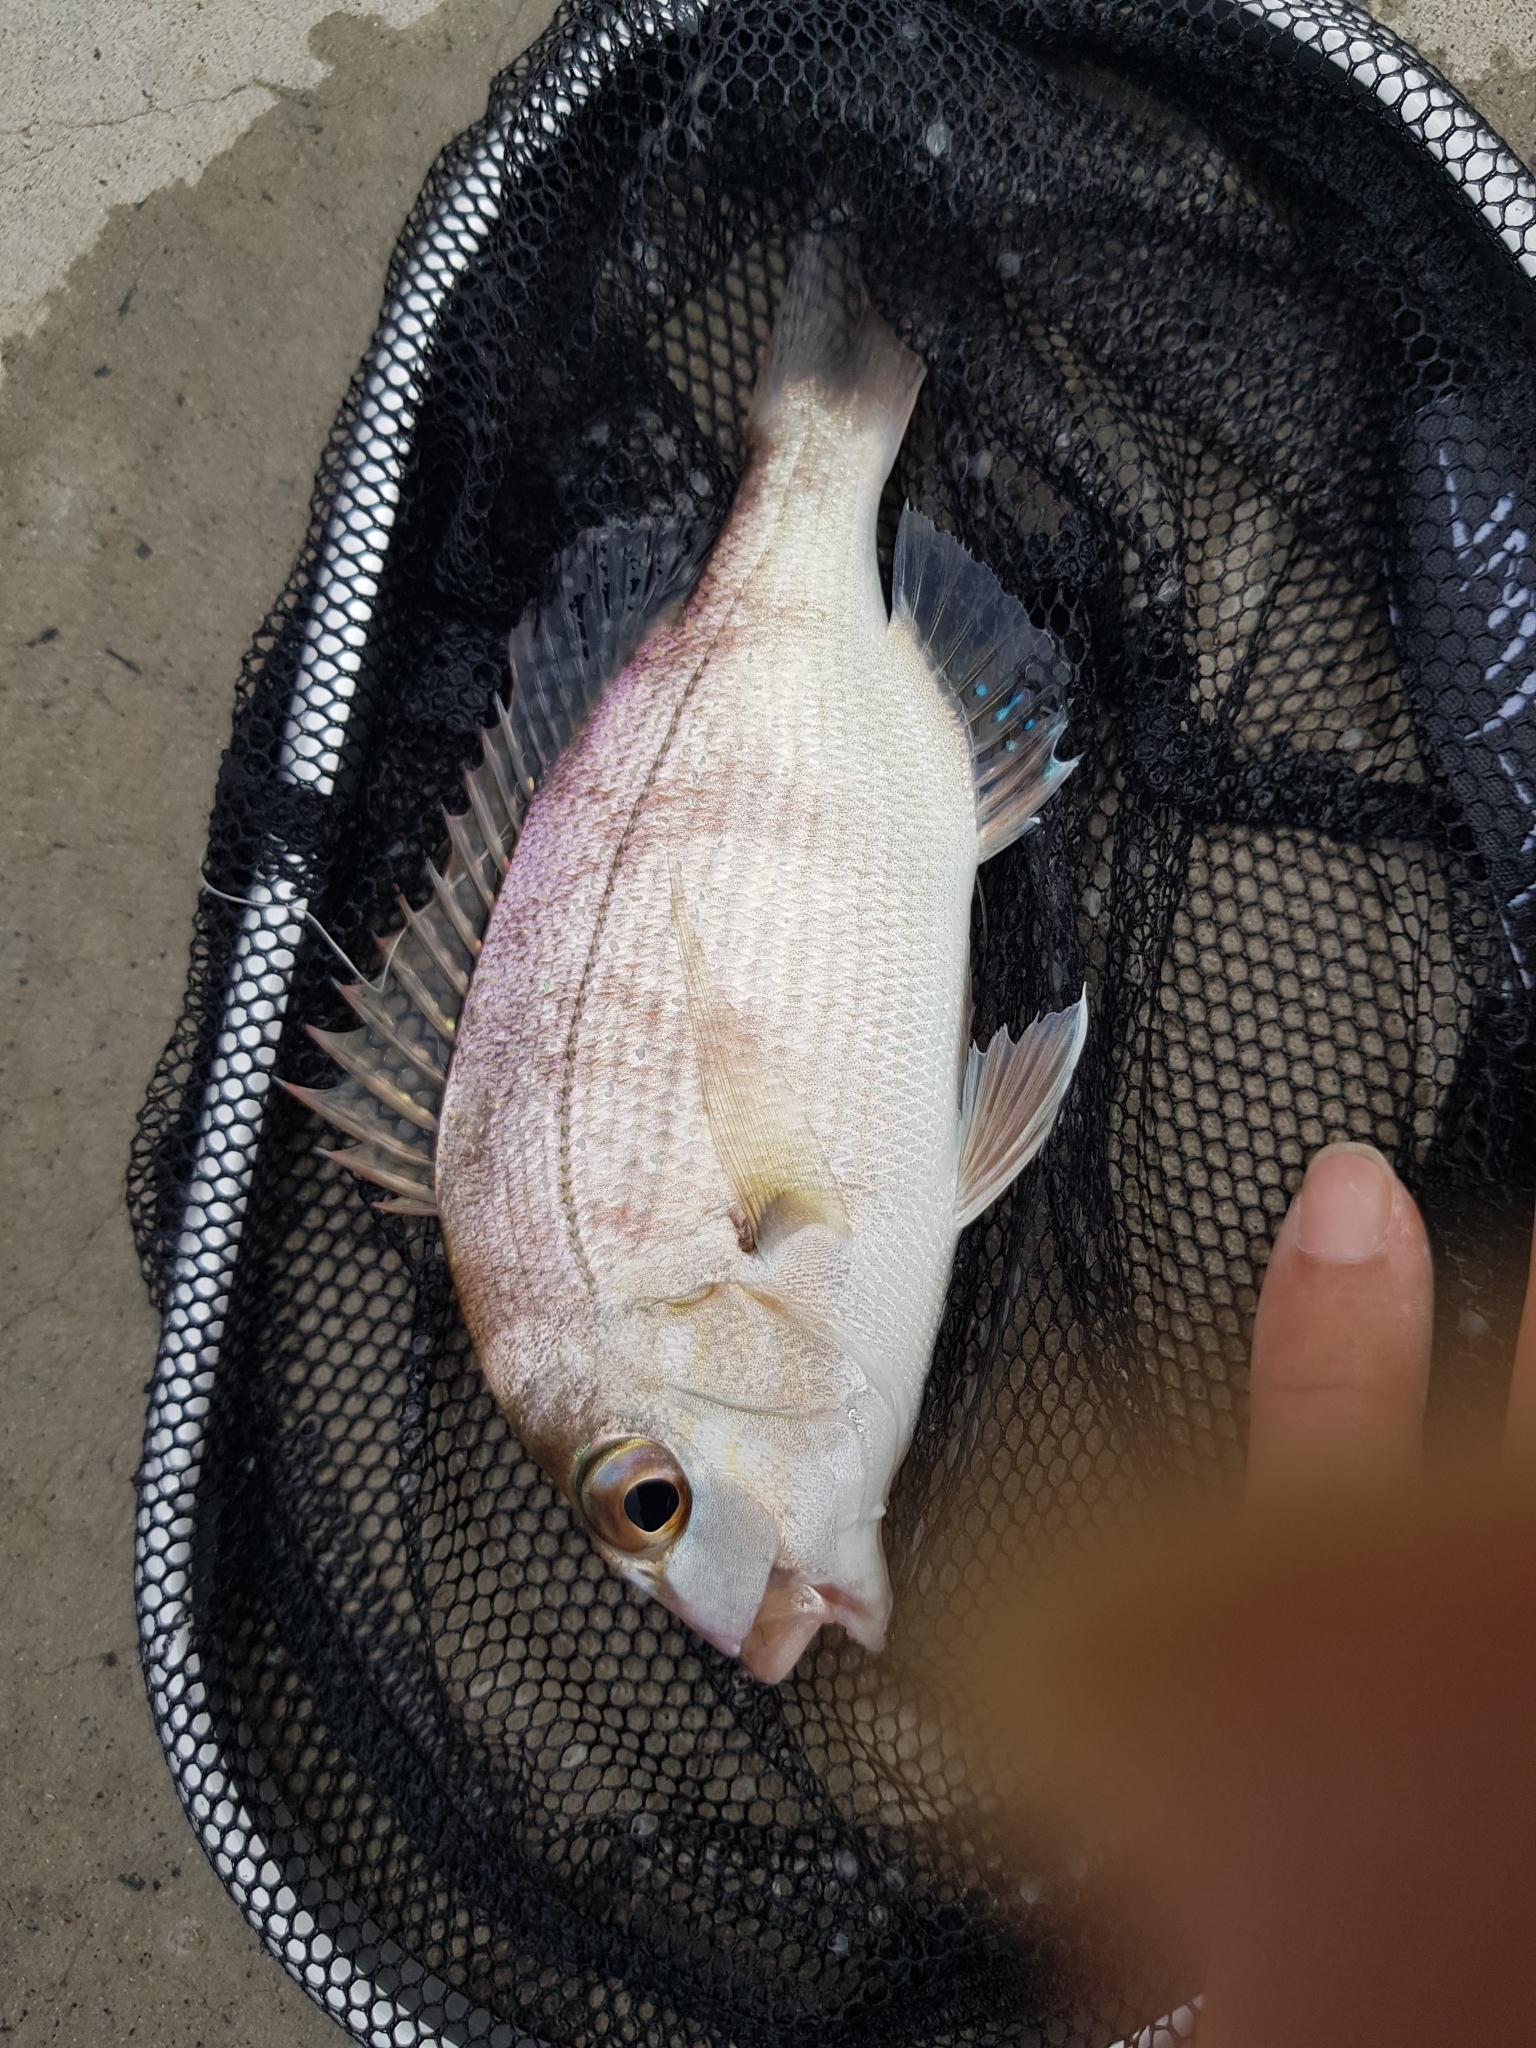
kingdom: Animalia
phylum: Chordata
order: Perciformes
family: Sparidae
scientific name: Sparidae
